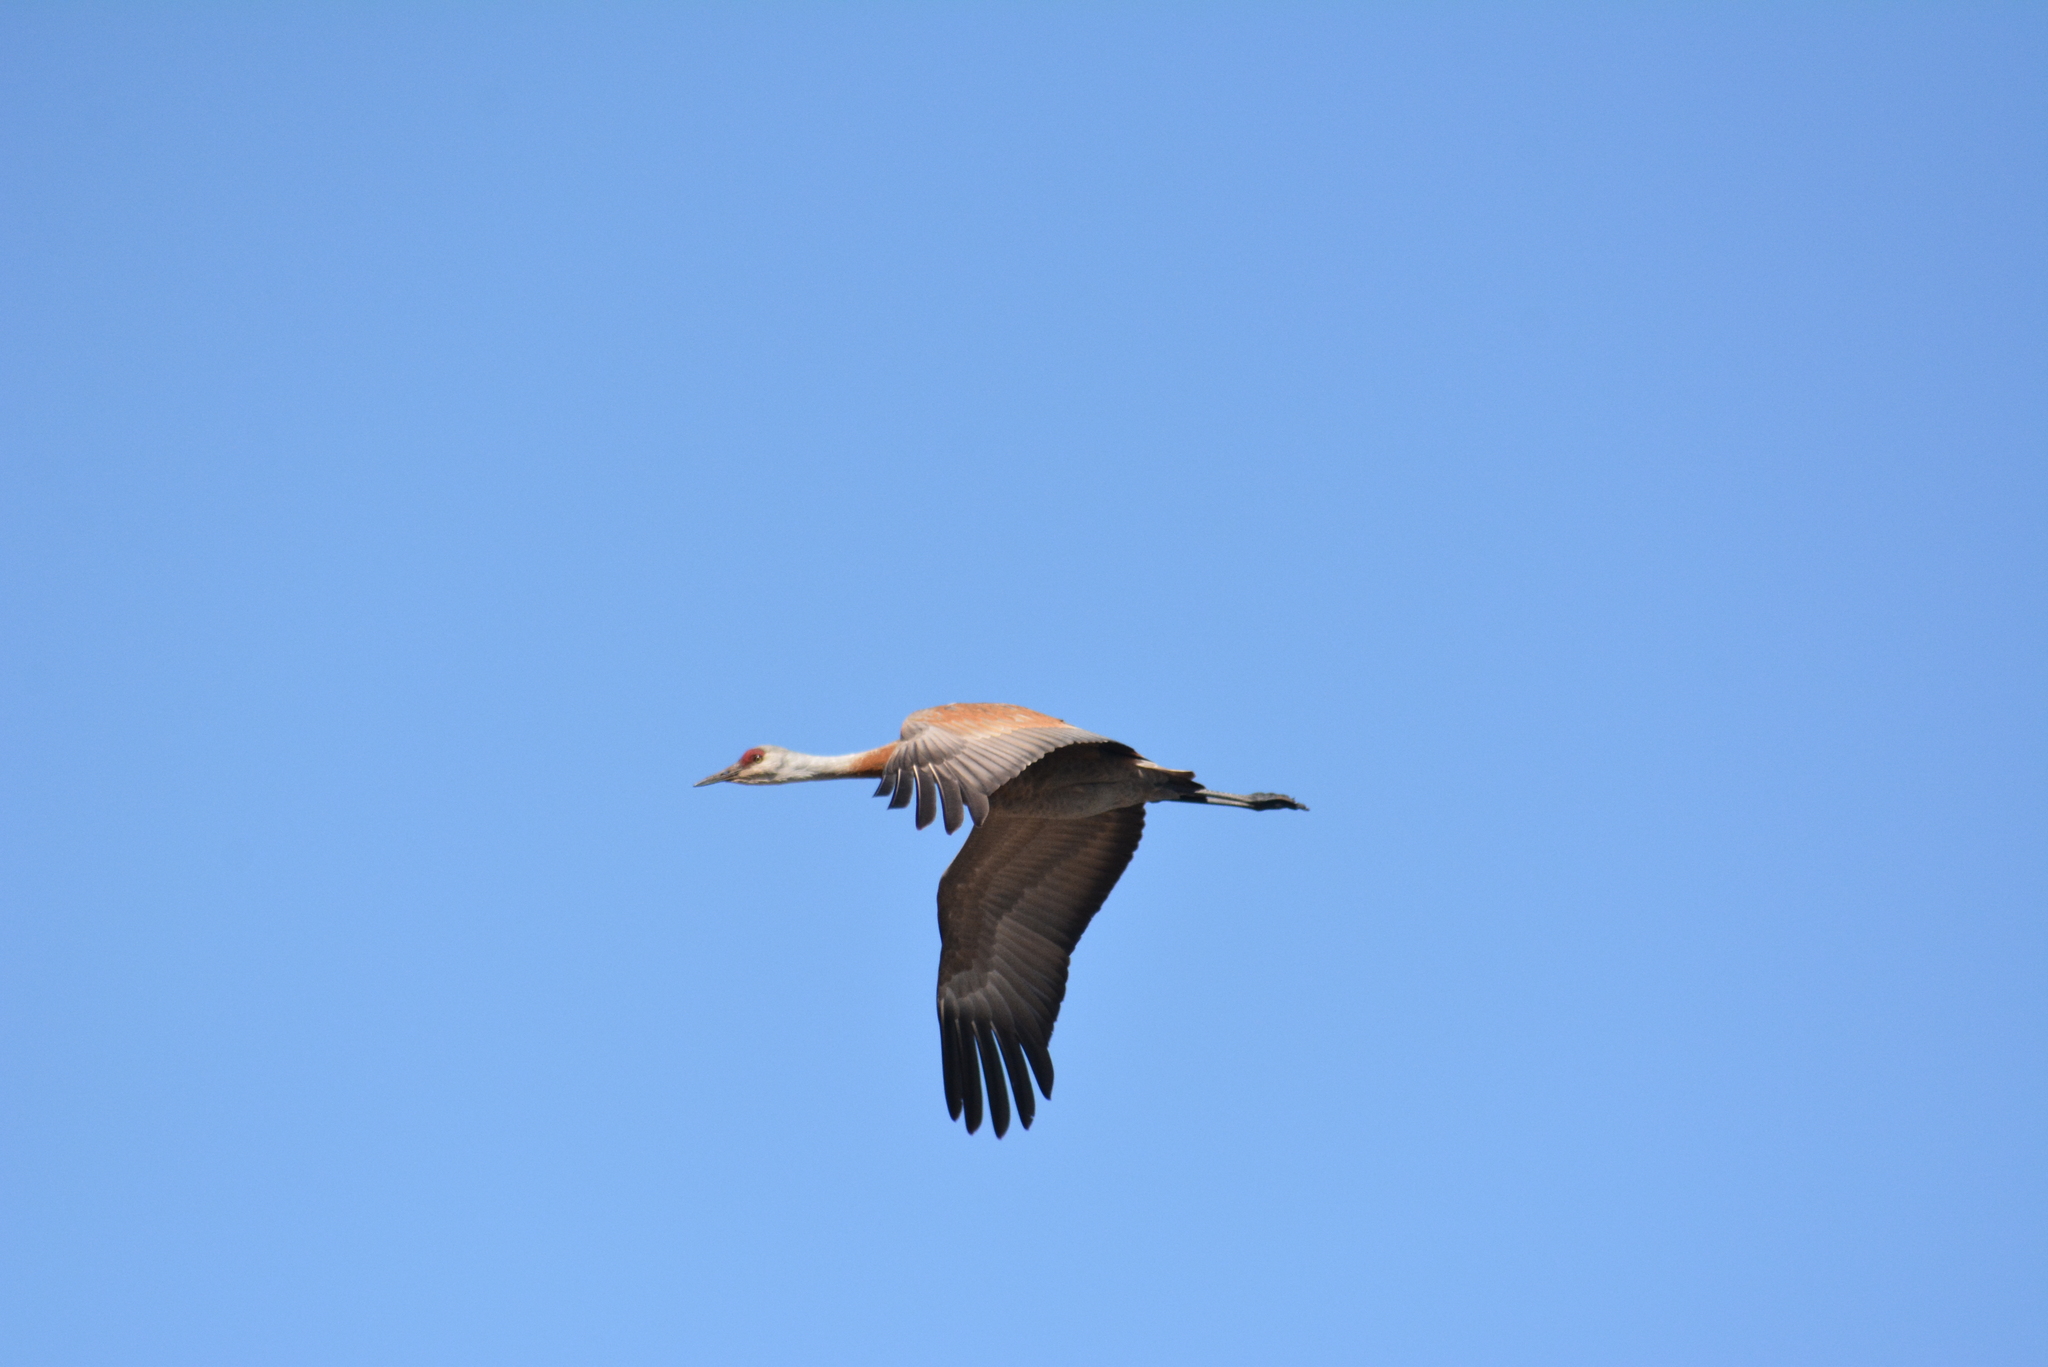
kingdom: Animalia
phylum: Chordata
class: Aves
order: Gruiformes
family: Gruidae
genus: Grus
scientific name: Grus canadensis
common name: Sandhill crane
